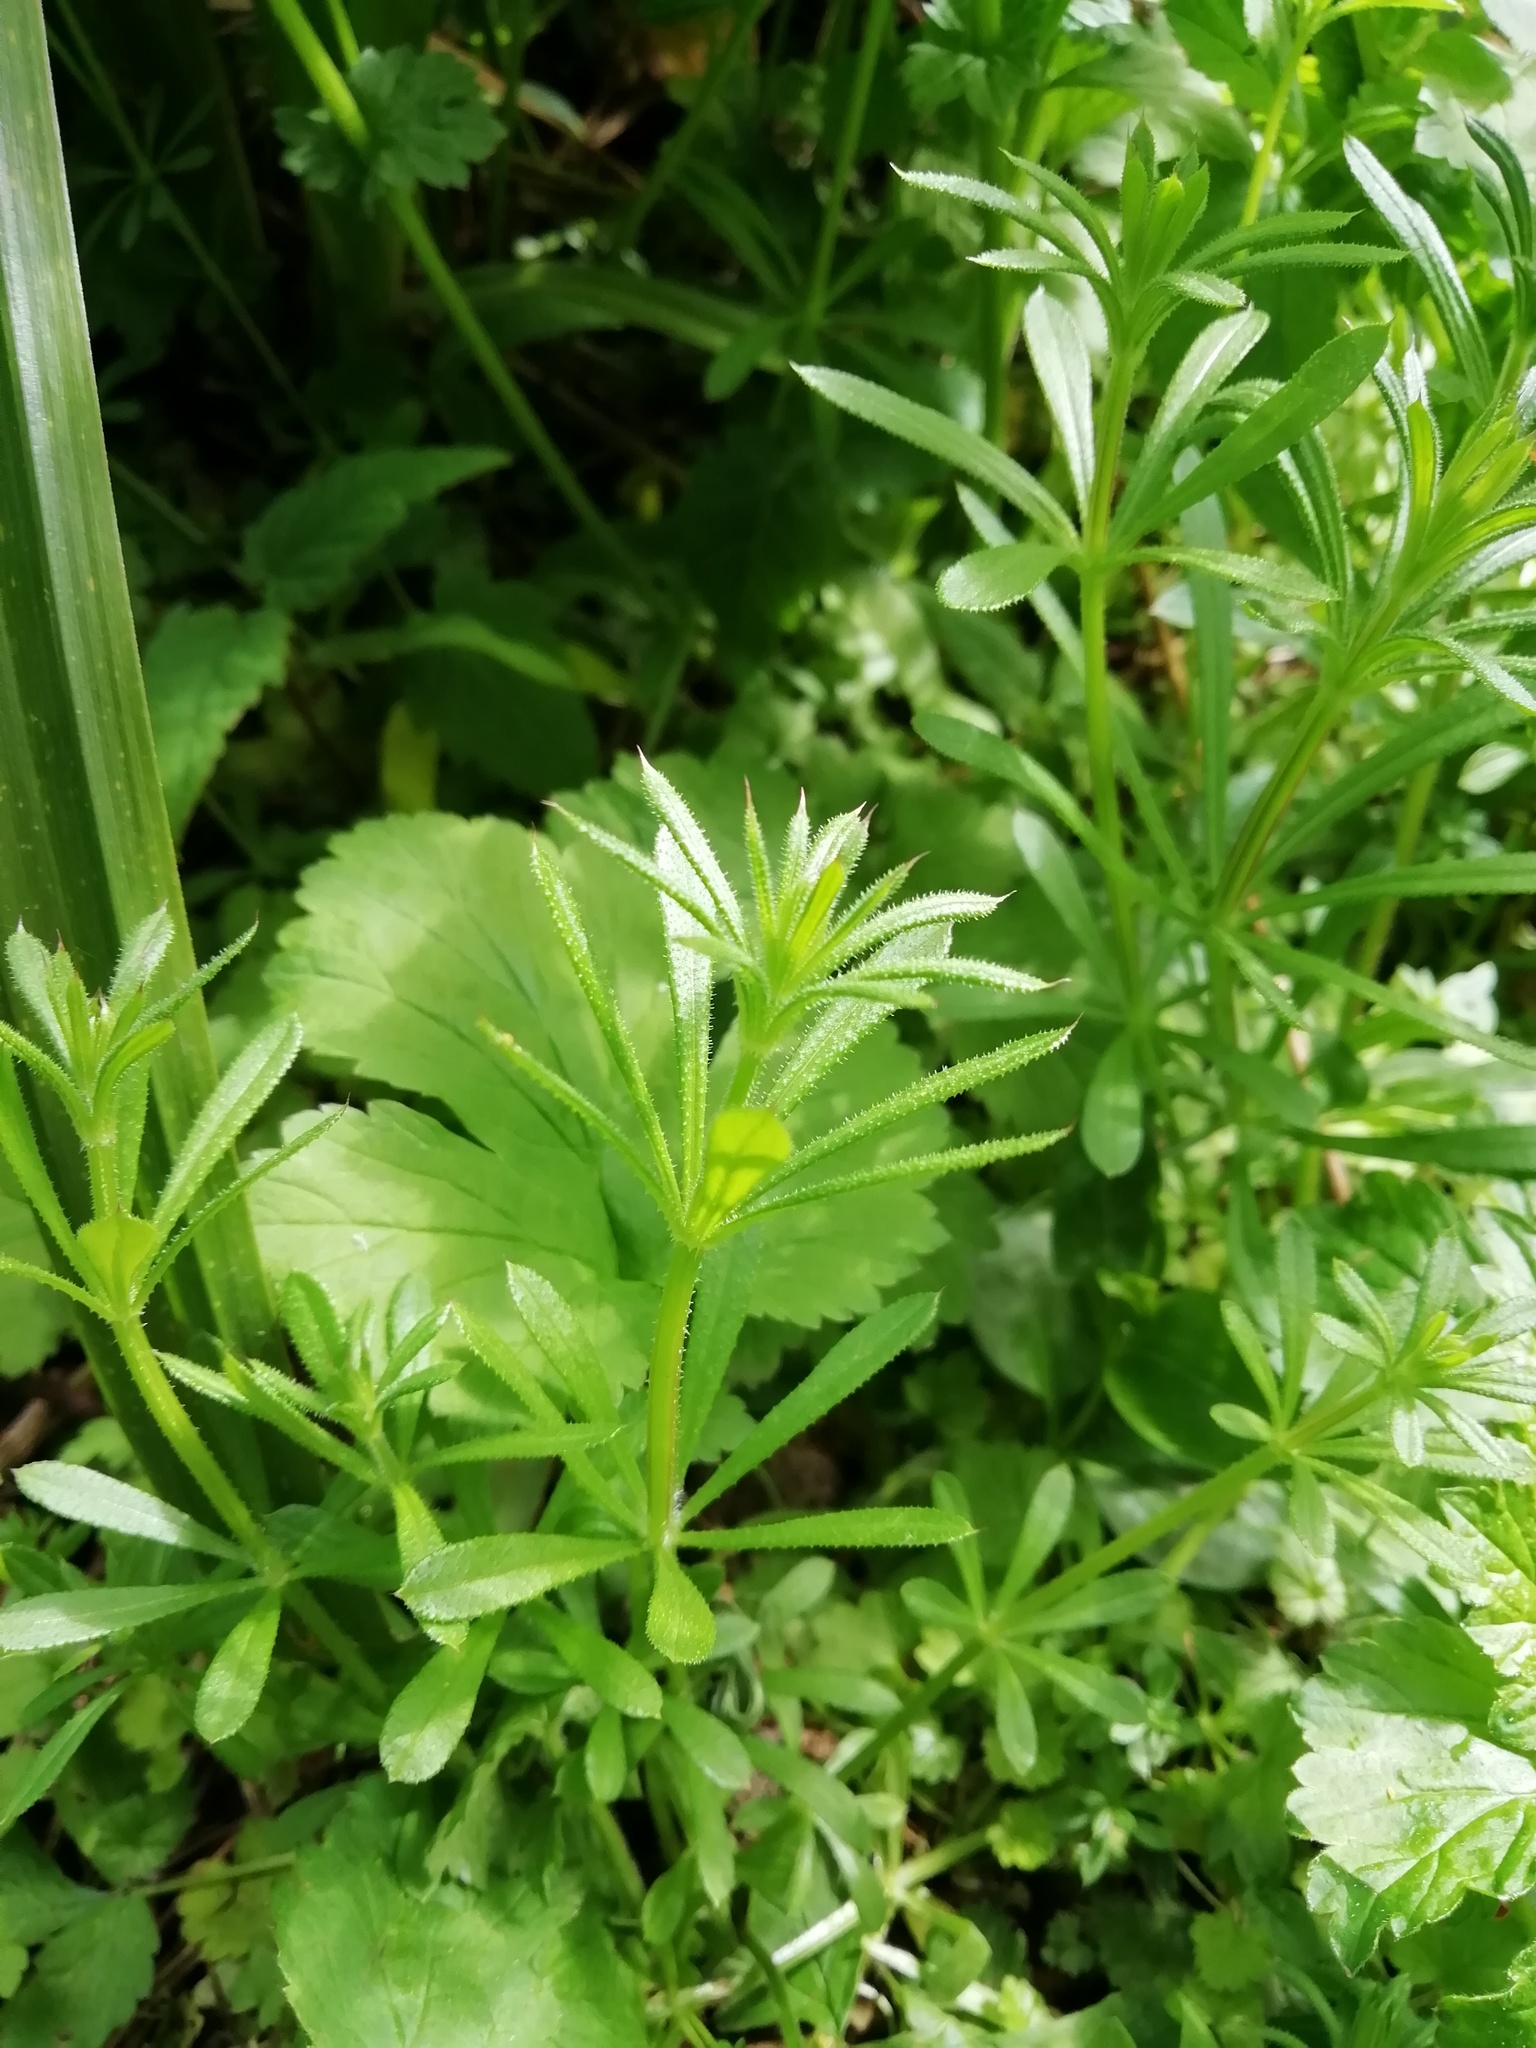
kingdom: Plantae
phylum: Tracheophyta
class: Magnoliopsida
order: Gentianales
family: Rubiaceae
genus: Galium
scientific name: Galium aparine
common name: Cleavers
